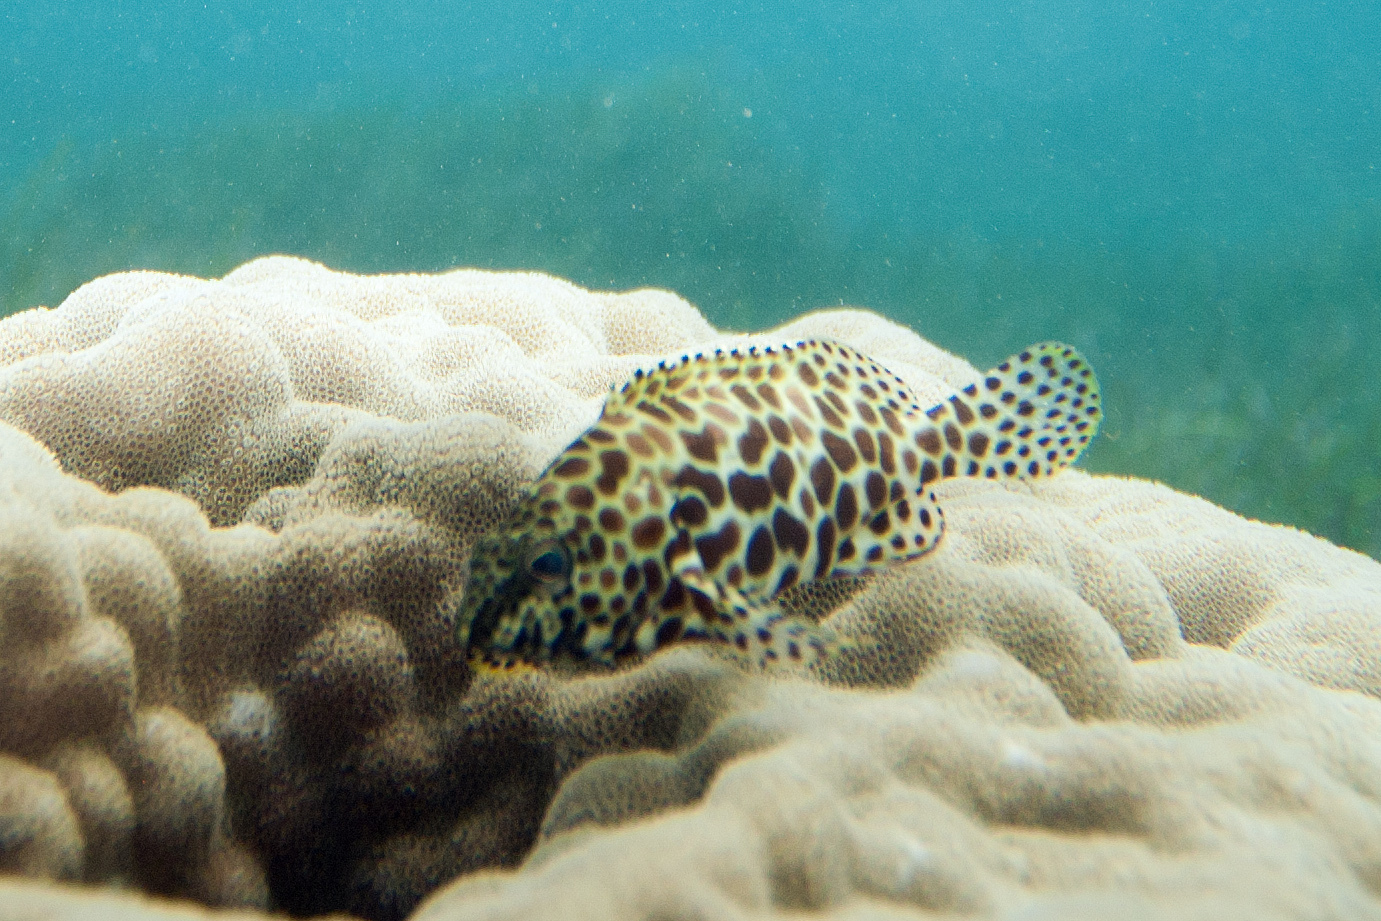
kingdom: Animalia
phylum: Chordata
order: Perciformes
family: Serranidae
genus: Epinephelus
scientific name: Epinephelus merra
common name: Honeycomb grouper
